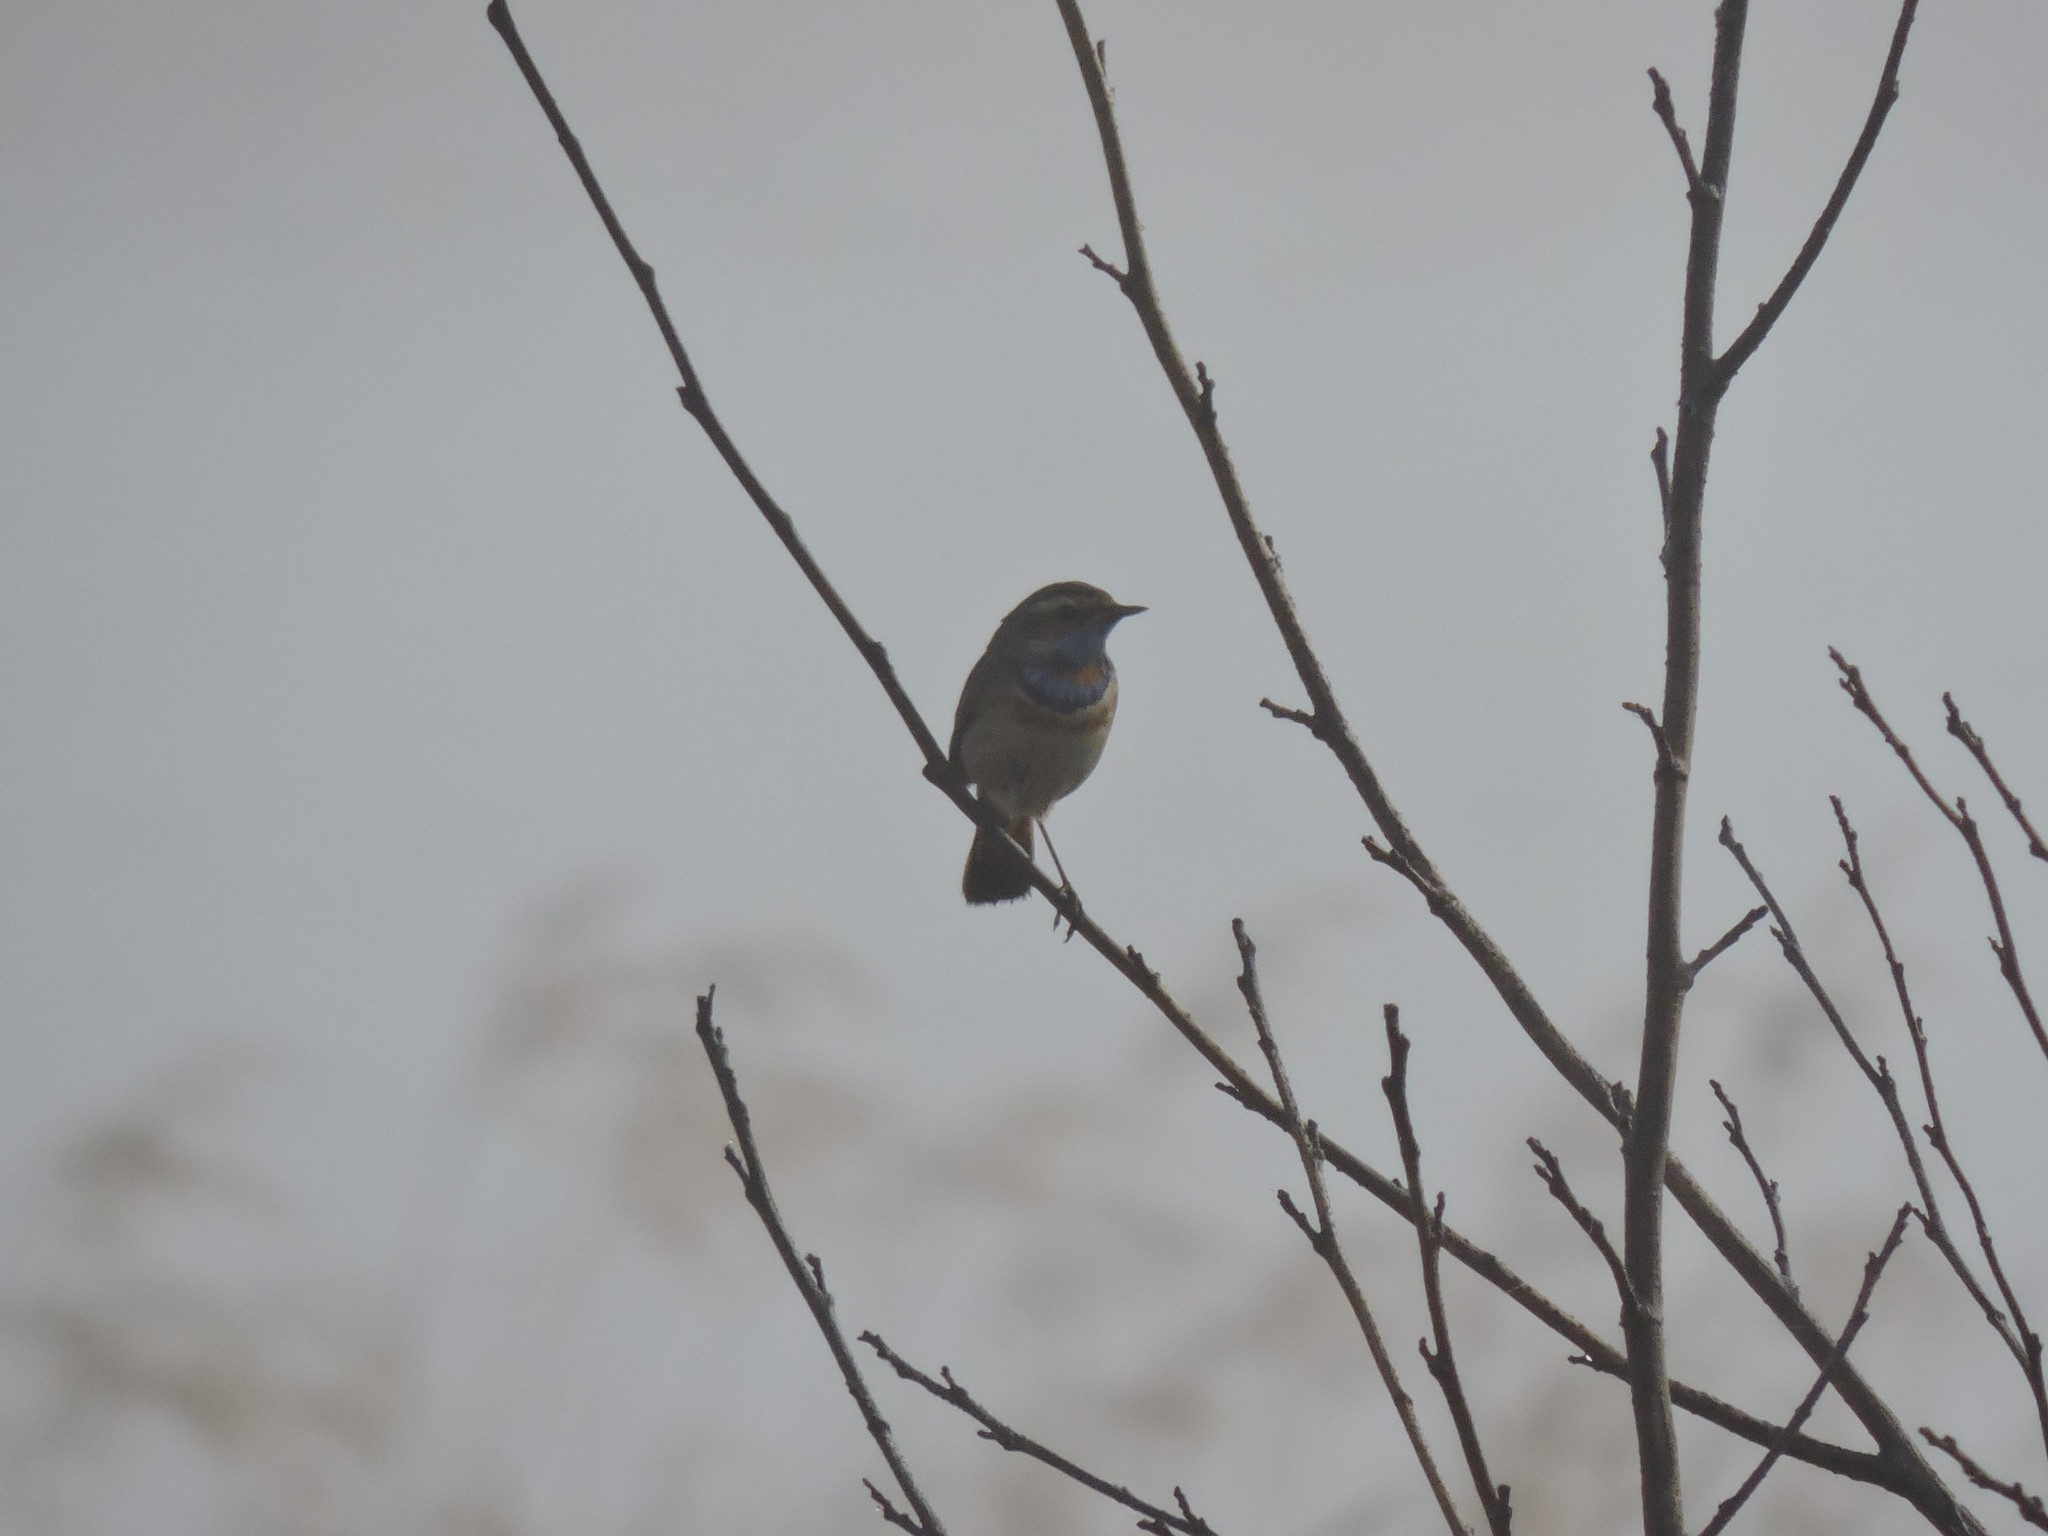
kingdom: Animalia
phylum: Chordata
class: Aves
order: Passeriformes
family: Muscicapidae
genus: Luscinia
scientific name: Luscinia svecica
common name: Bluethroat
